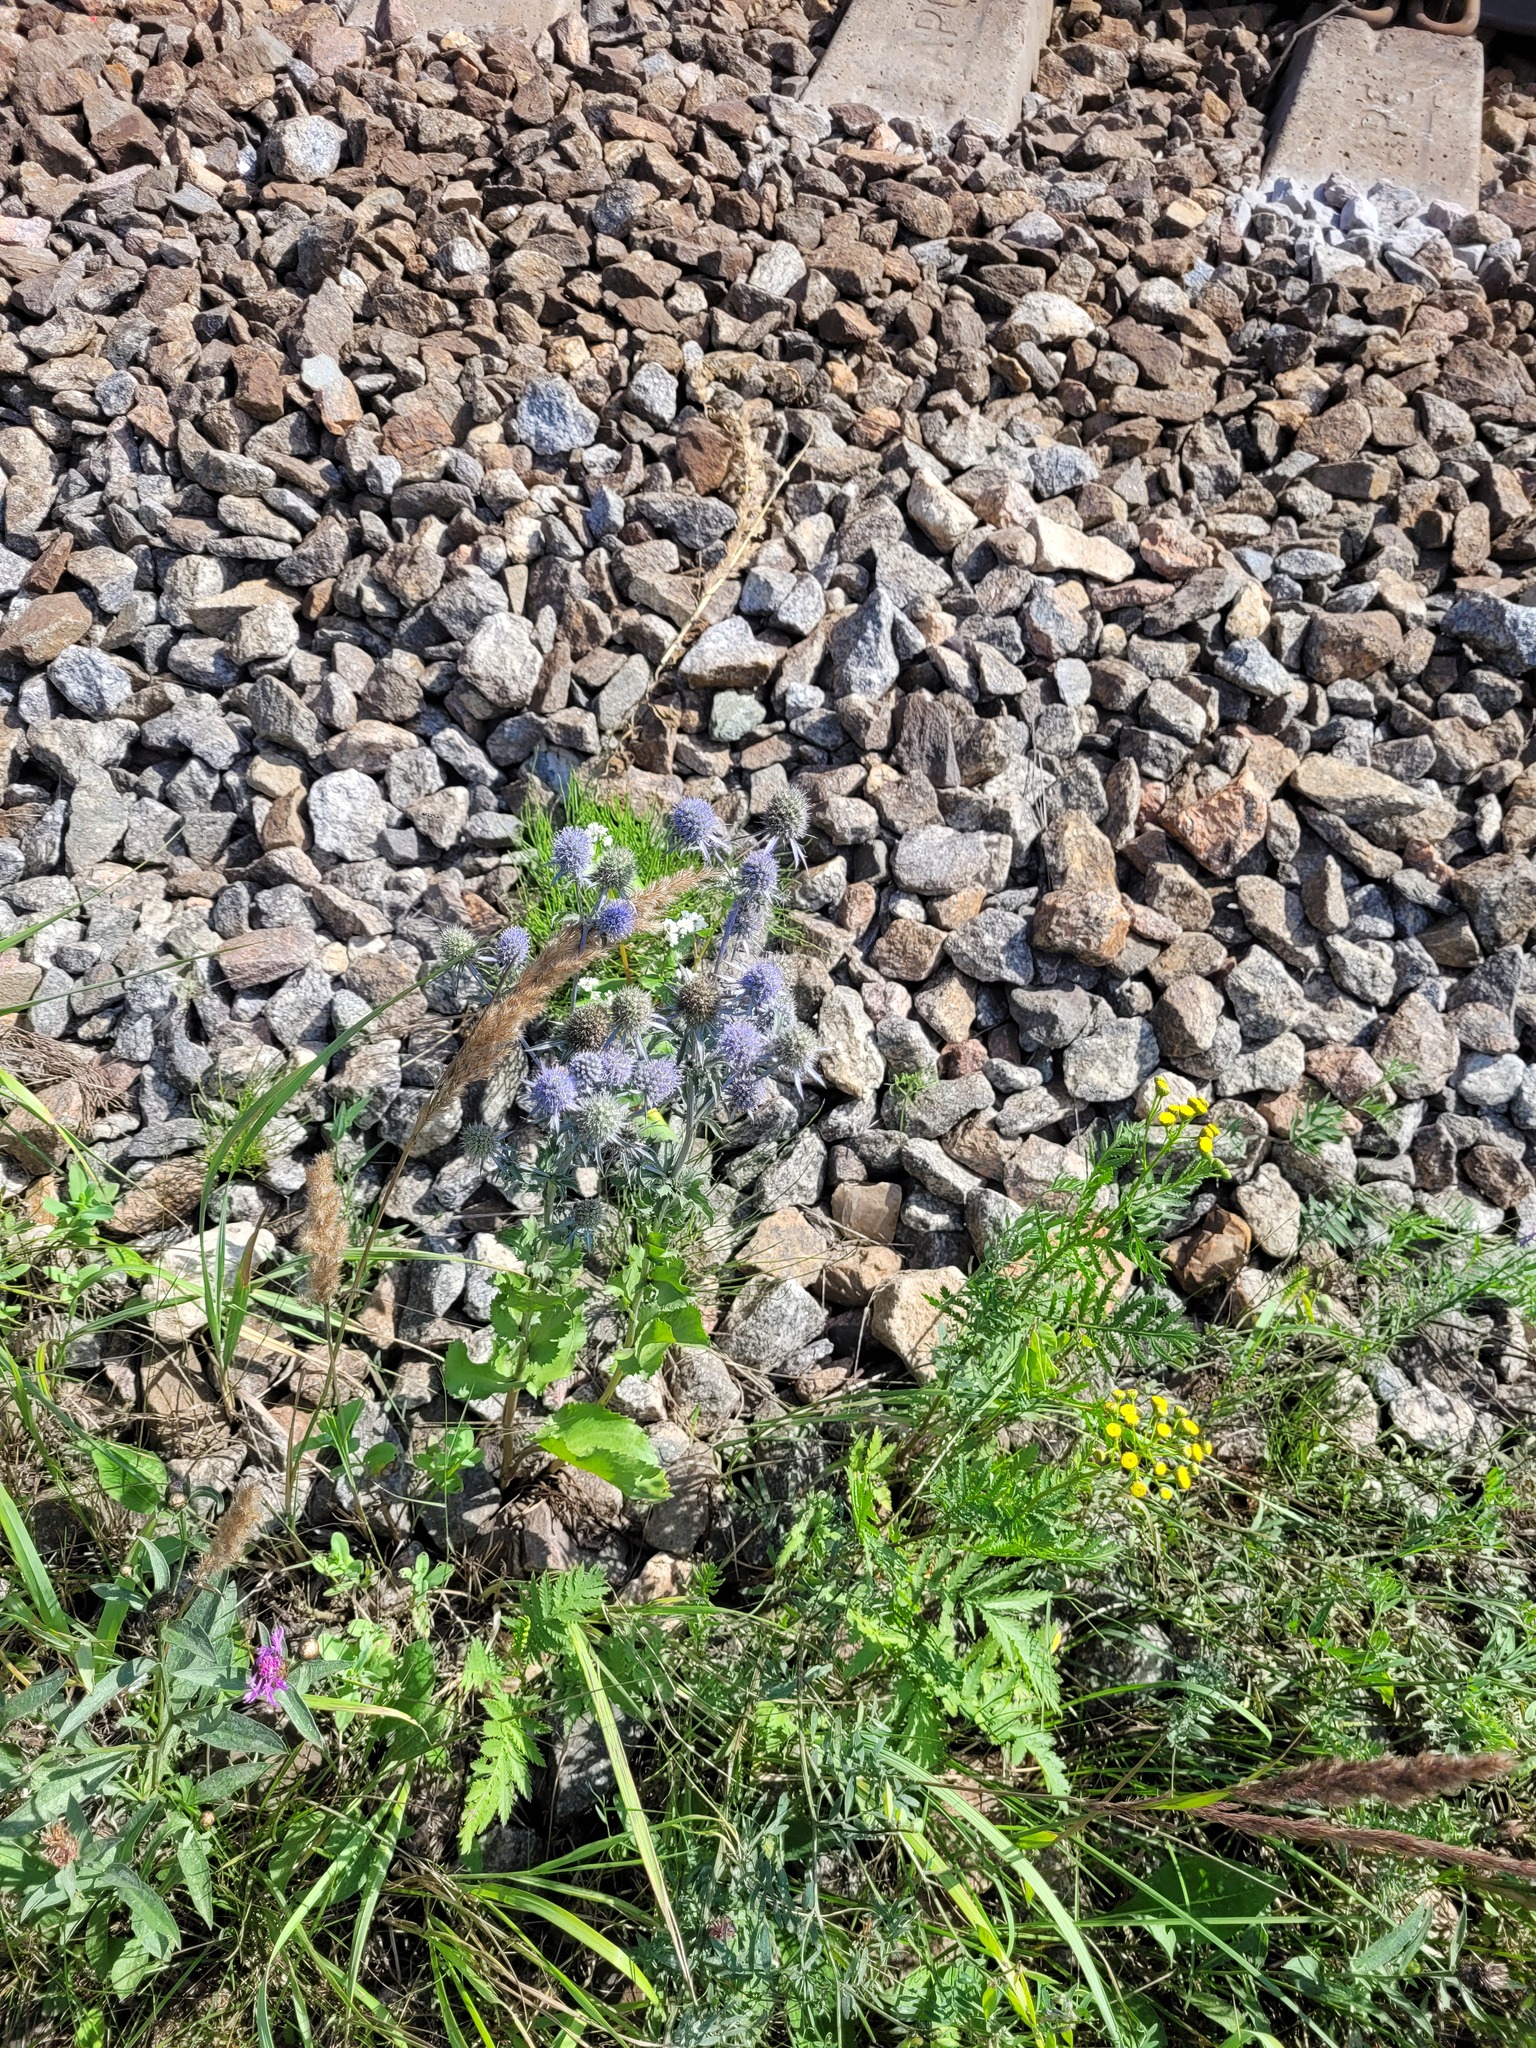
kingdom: Plantae
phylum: Tracheophyta
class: Magnoliopsida
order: Apiales
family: Apiaceae
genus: Eryngium
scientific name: Eryngium planum
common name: Blue eryngo
